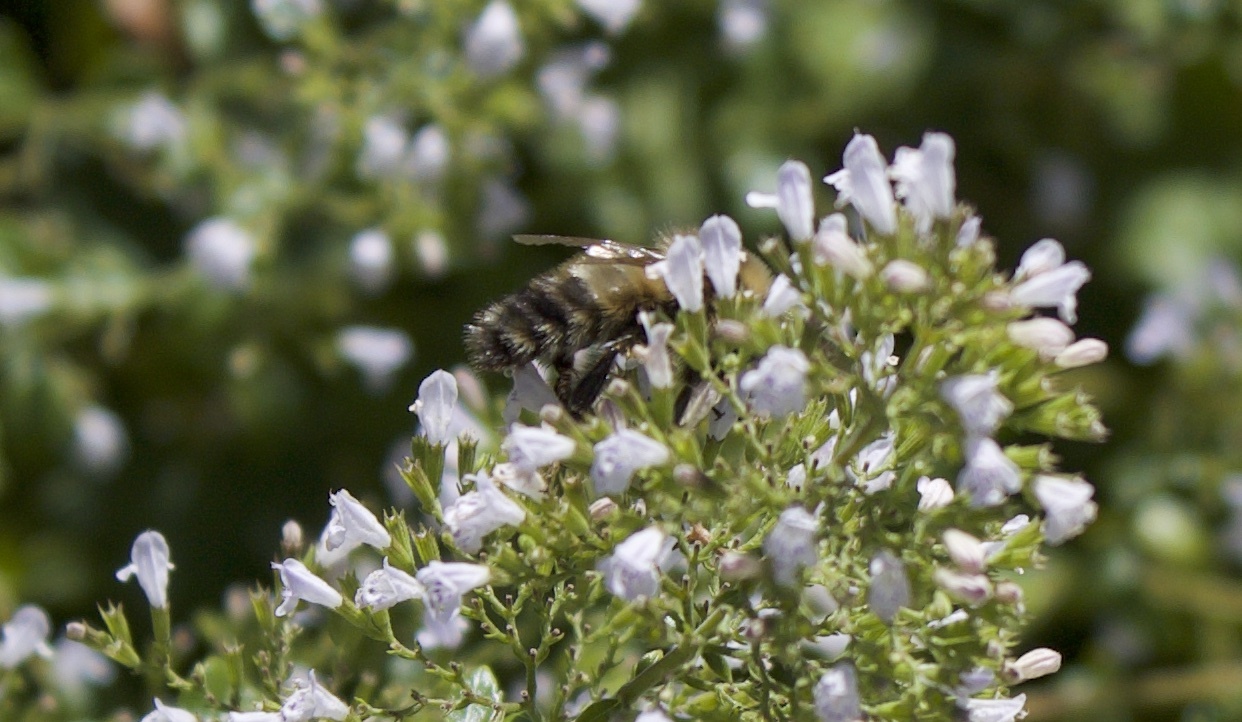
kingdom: Animalia
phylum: Arthropoda
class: Insecta
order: Hymenoptera
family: Apidae
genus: Bombus
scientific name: Bombus rufocinctus
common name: Red-belted bumble bee
